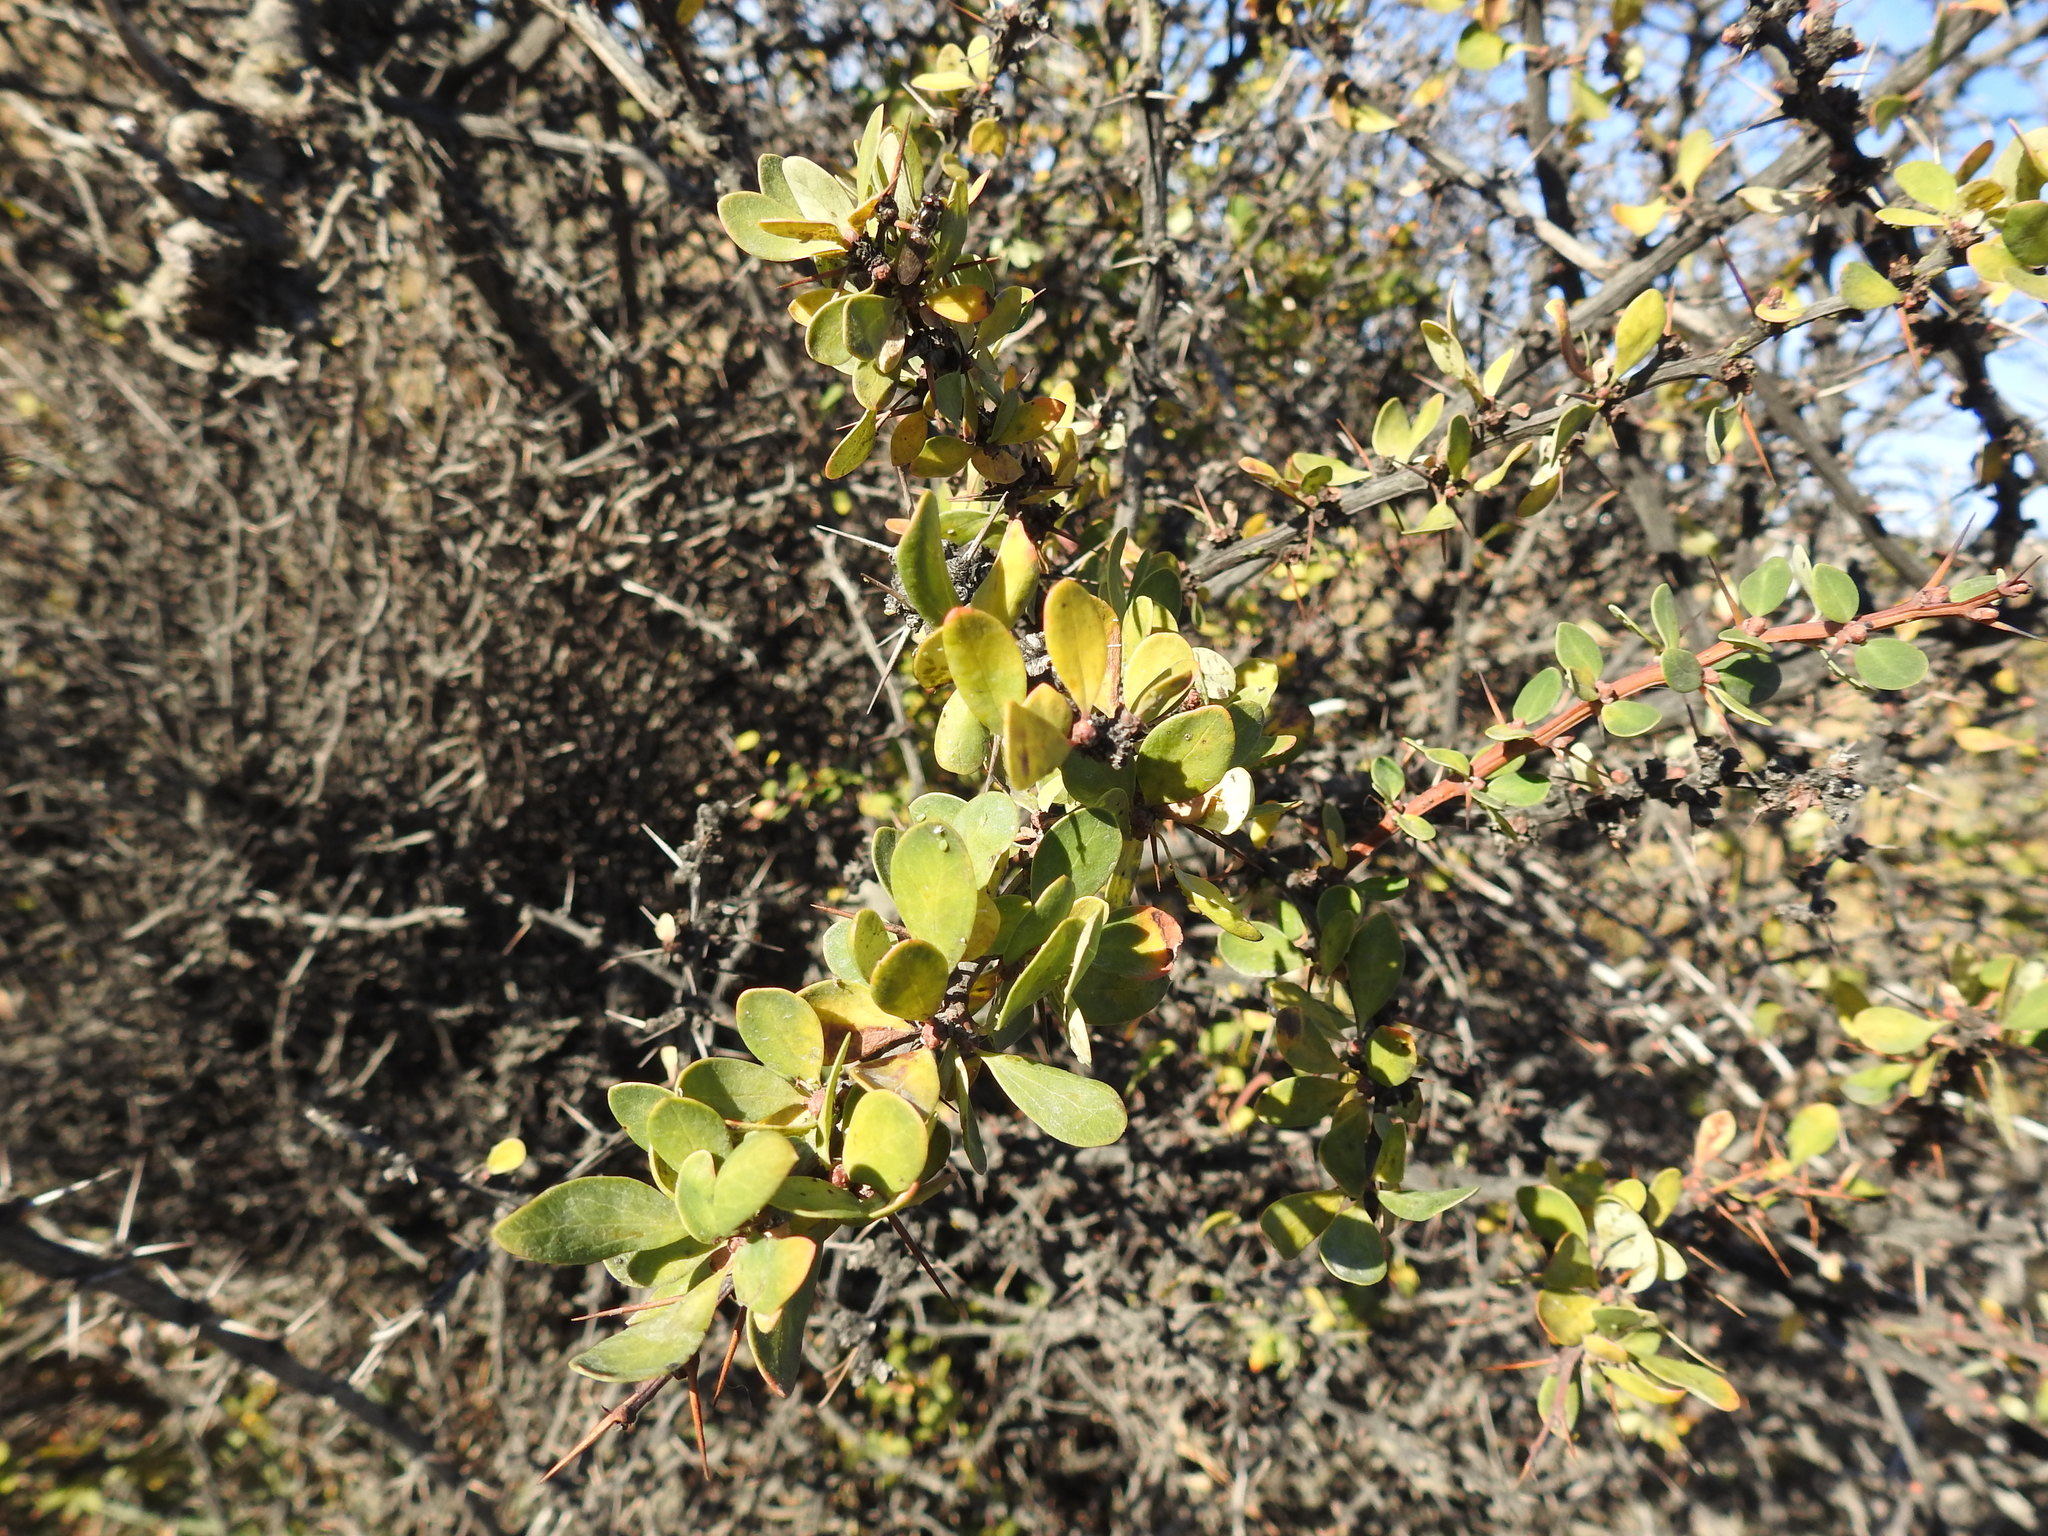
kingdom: Plantae
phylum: Tracheophyta
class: Magnoliopsida
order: Ranunculales
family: Berberidaceae
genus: Berberis
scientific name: Berberis microphylla
